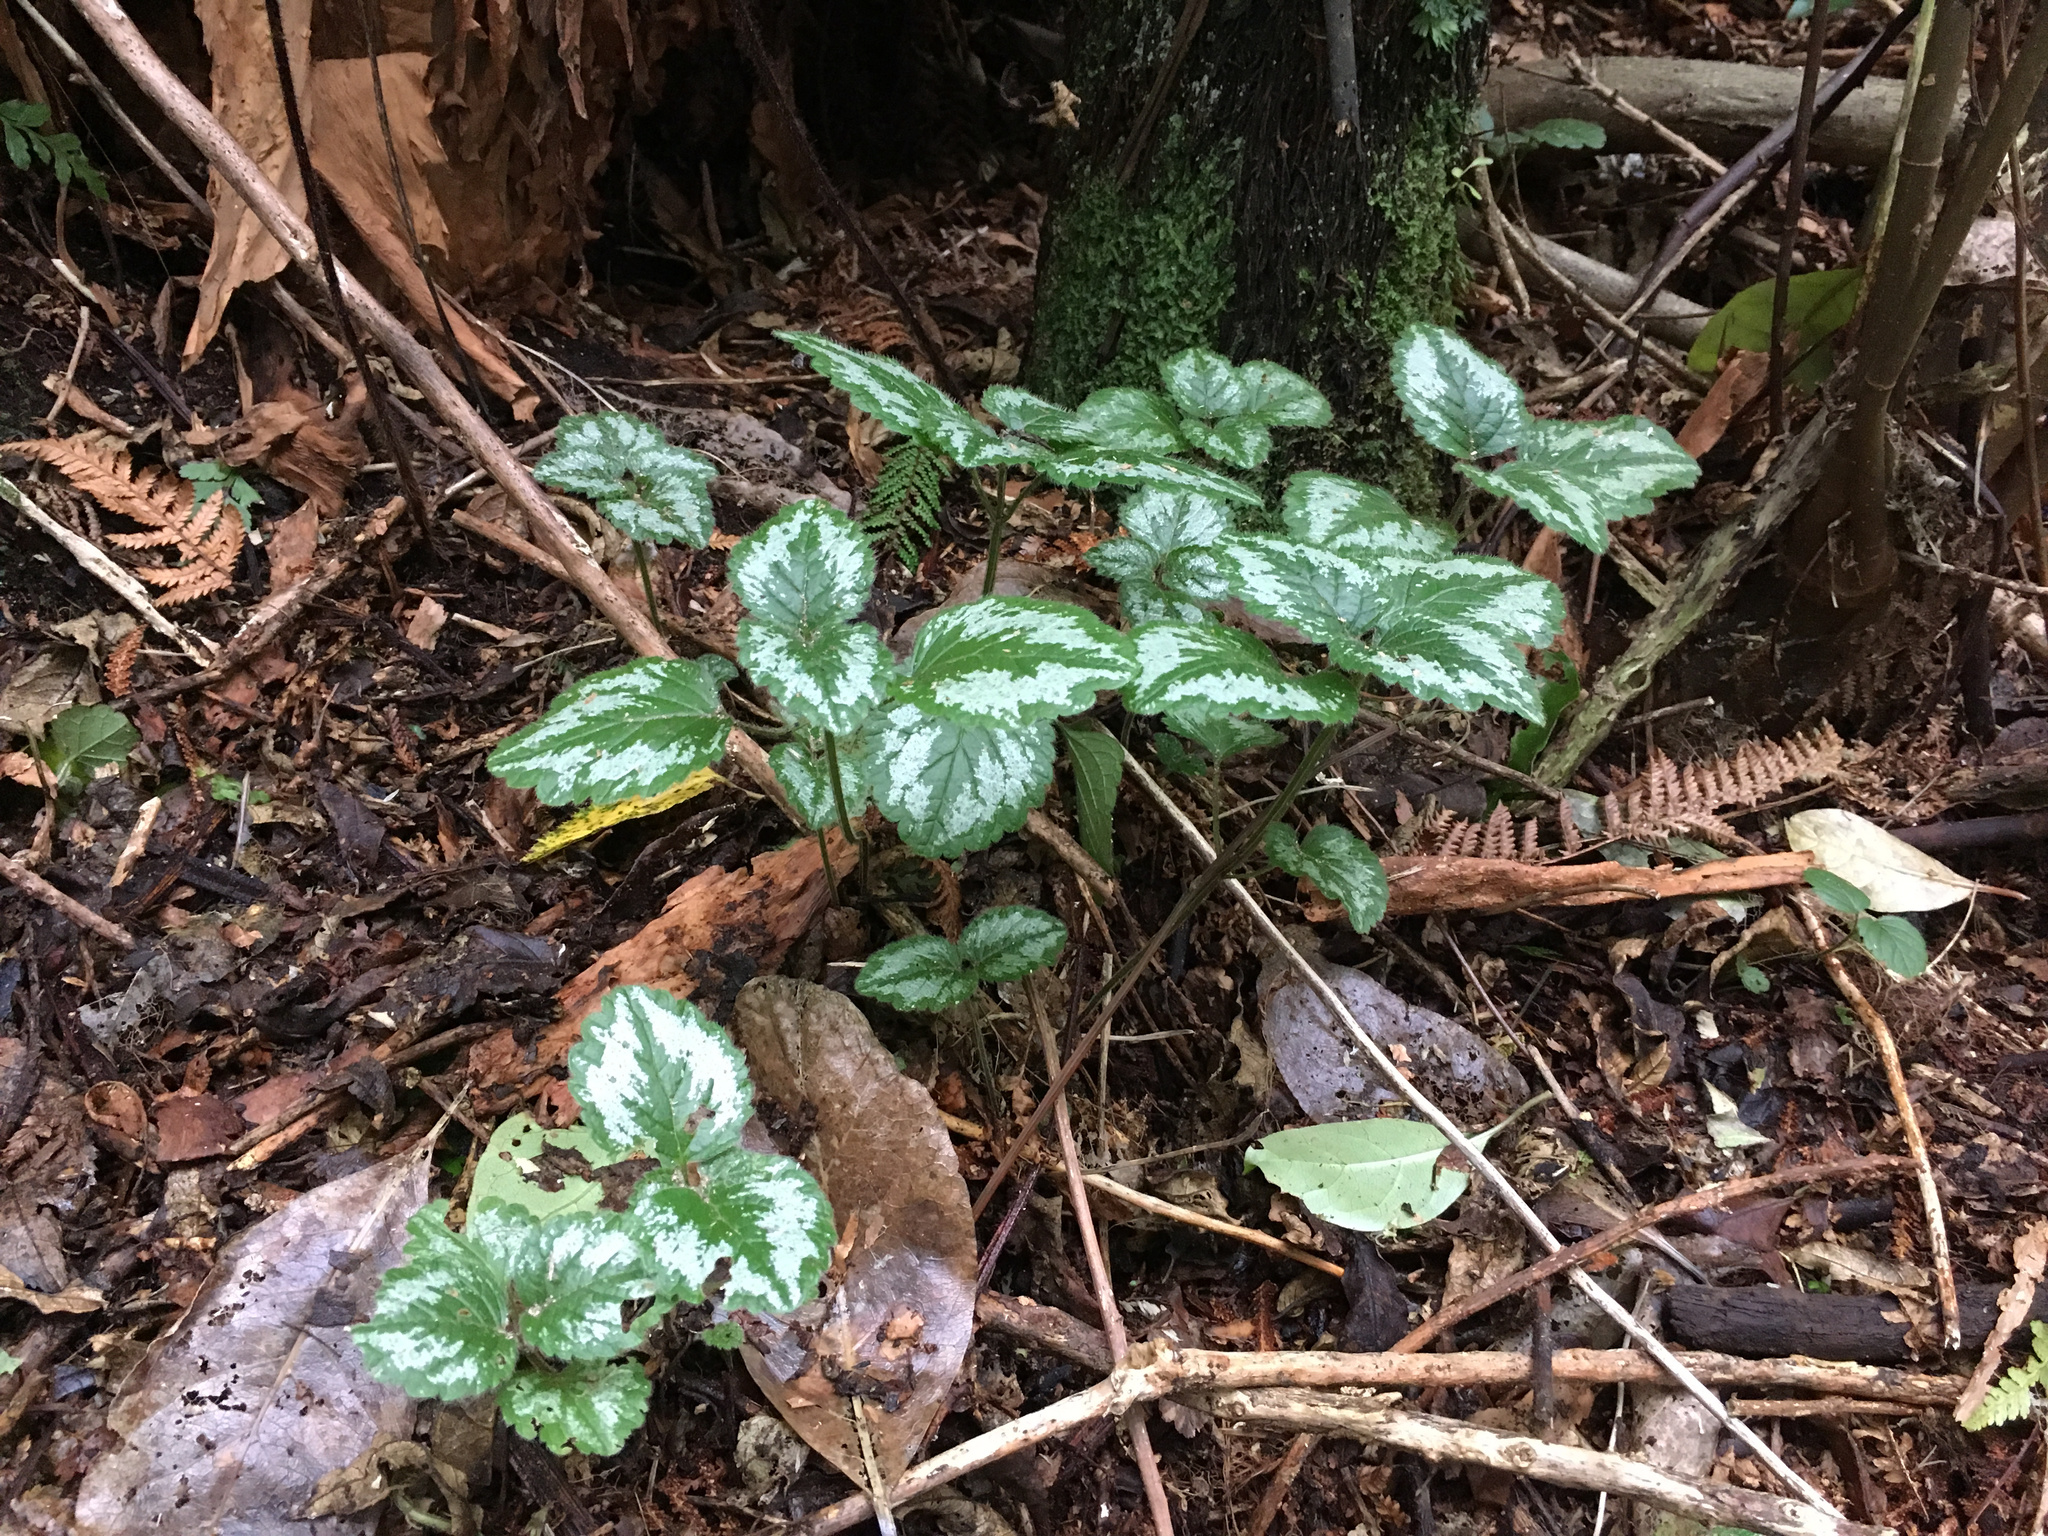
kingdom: Plantae
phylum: Tracheophyta
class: Magnoliopsida
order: Lamiales
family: Lamiaceae
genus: Lamium
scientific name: Lamium galeobdolon
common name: Yellow archangel
